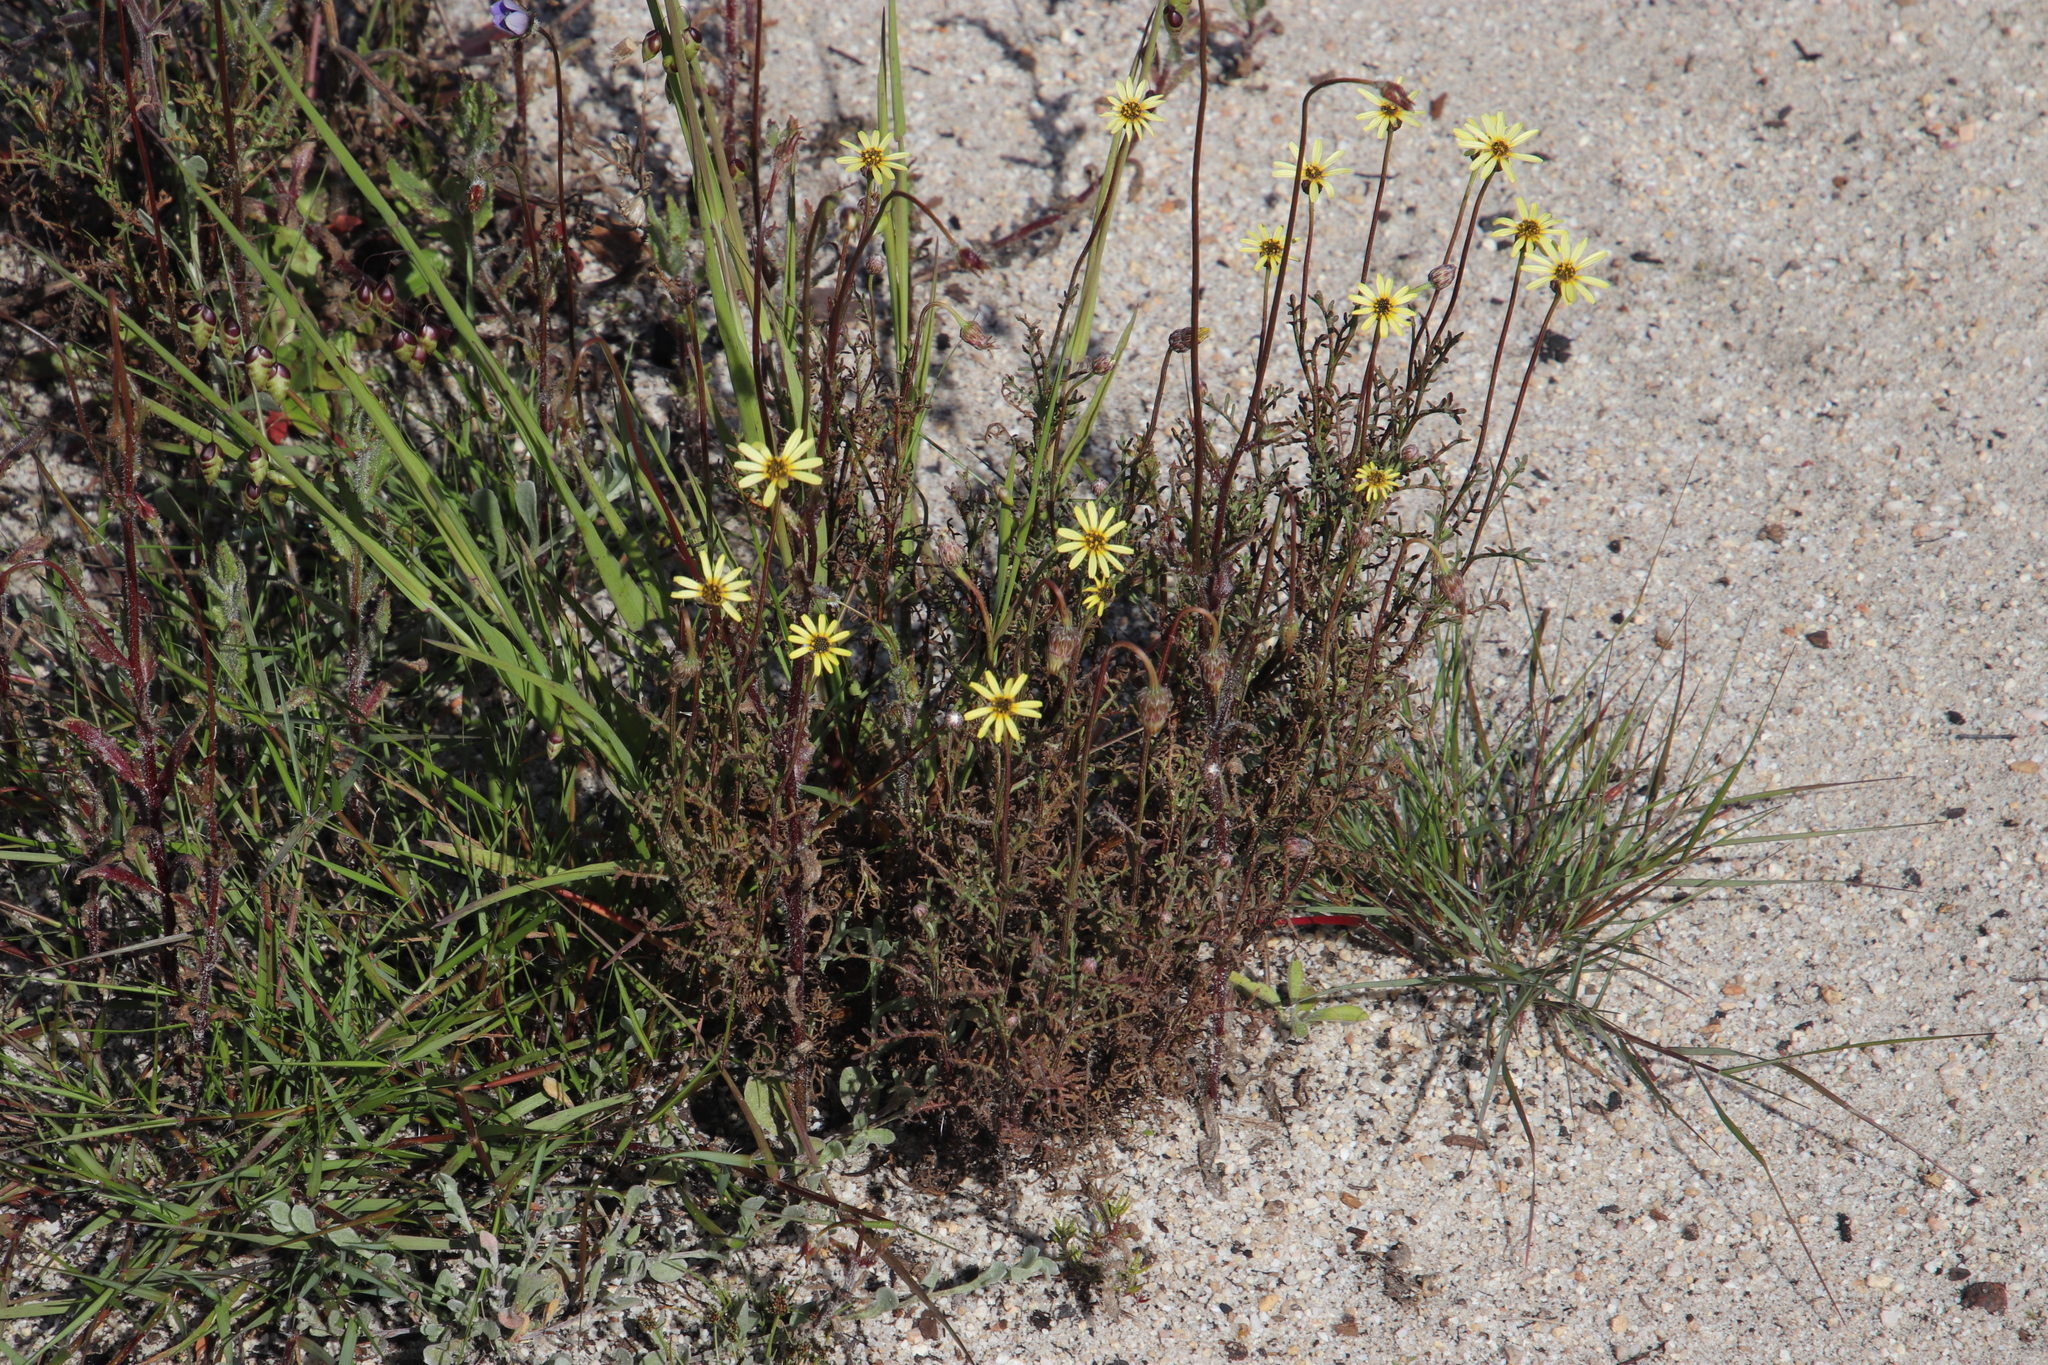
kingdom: Plantae
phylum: Tracheophyta
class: Magnoliopsida
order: Asterales
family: Asteraceae
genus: Ursinia
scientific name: Ursinia anthemoides
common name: Ursinia
